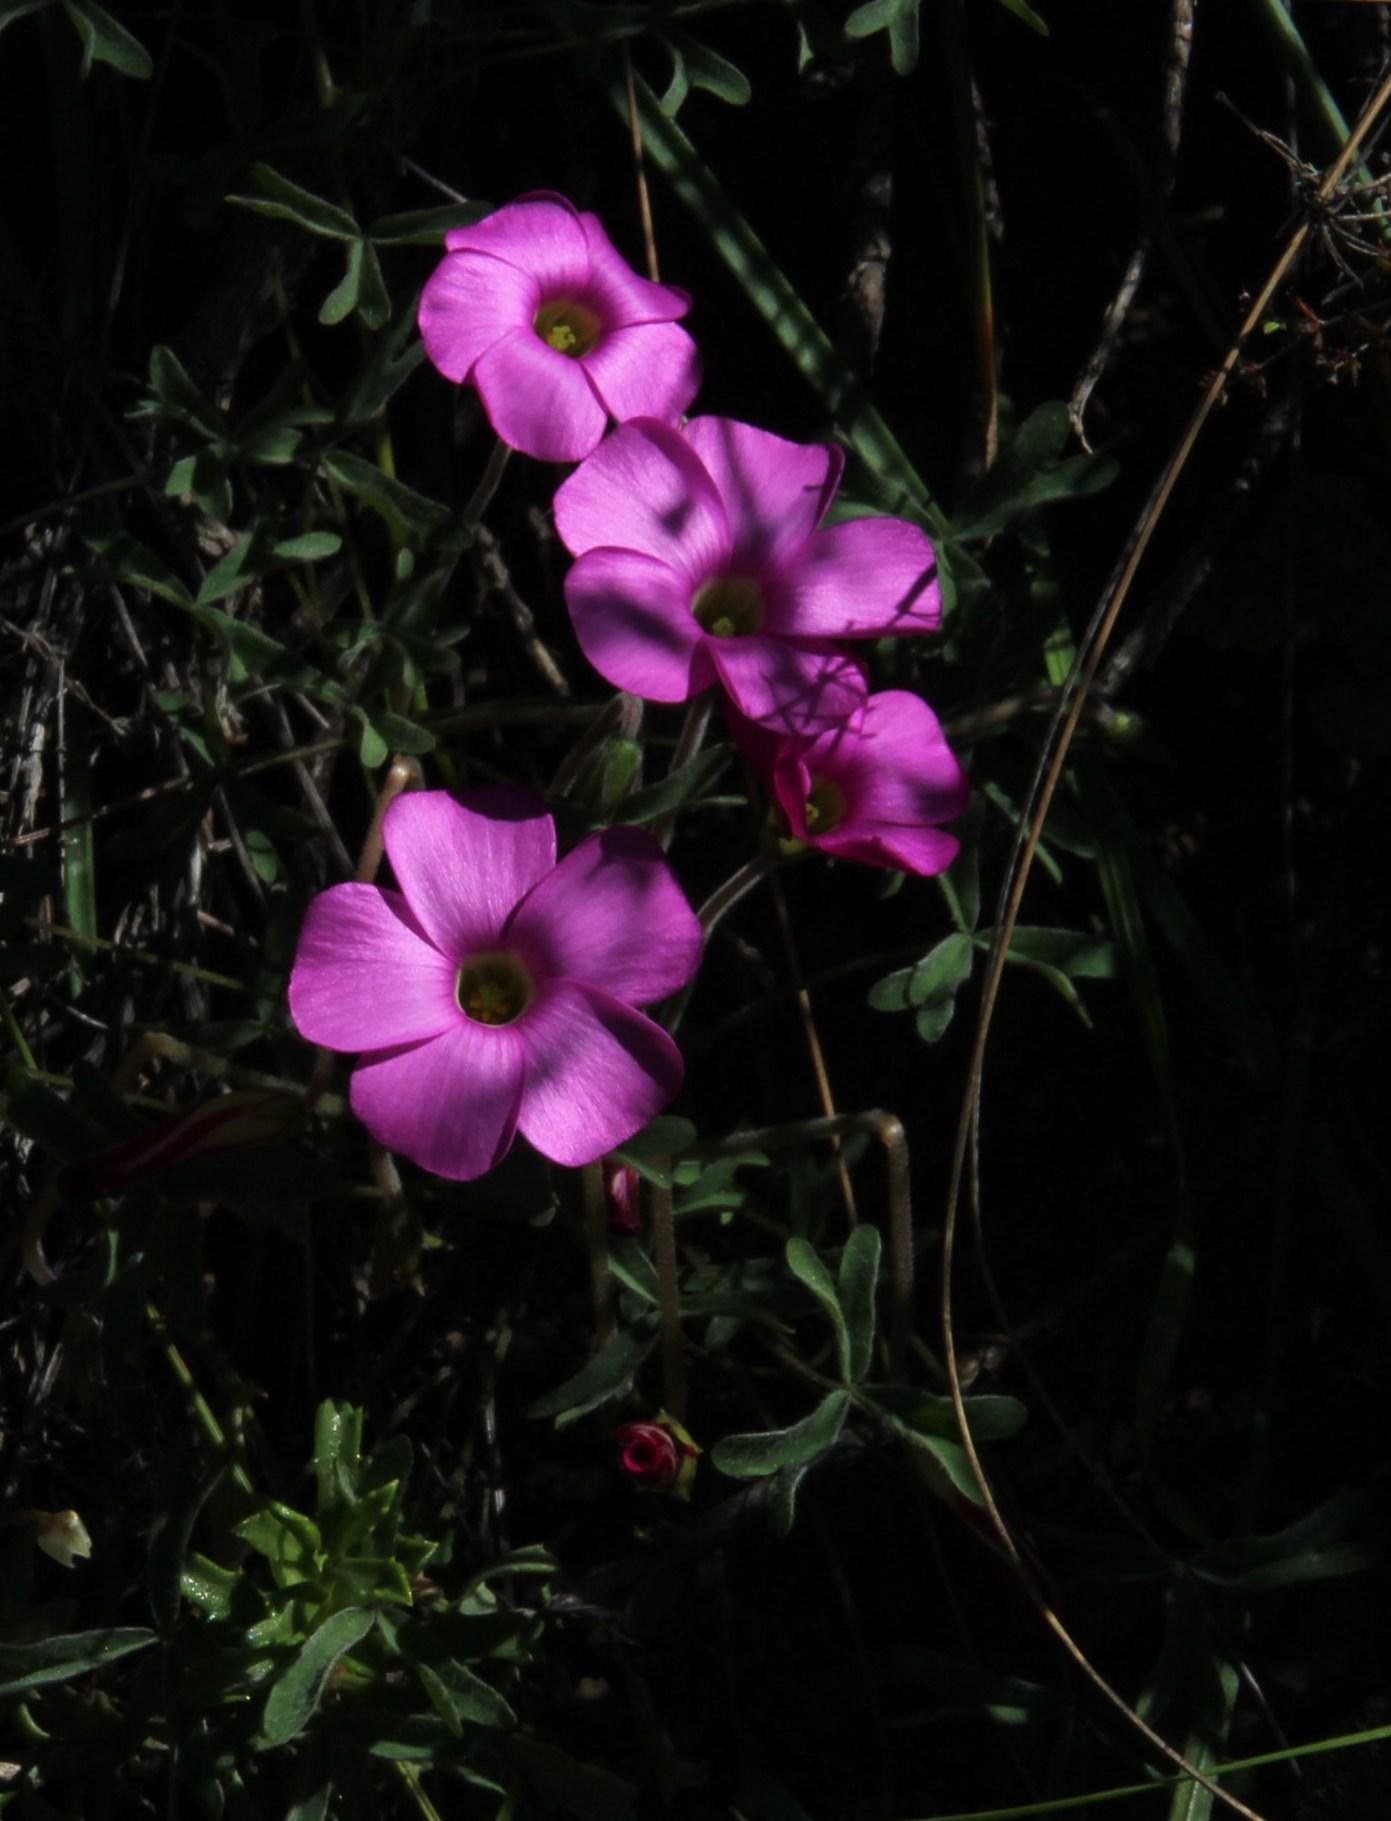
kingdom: Plantae
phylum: Tracheophyta
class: Magnoliopsida
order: Oxalidales
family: Oxalidaceae
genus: Oxalis
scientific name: Oxalis heterophylla
